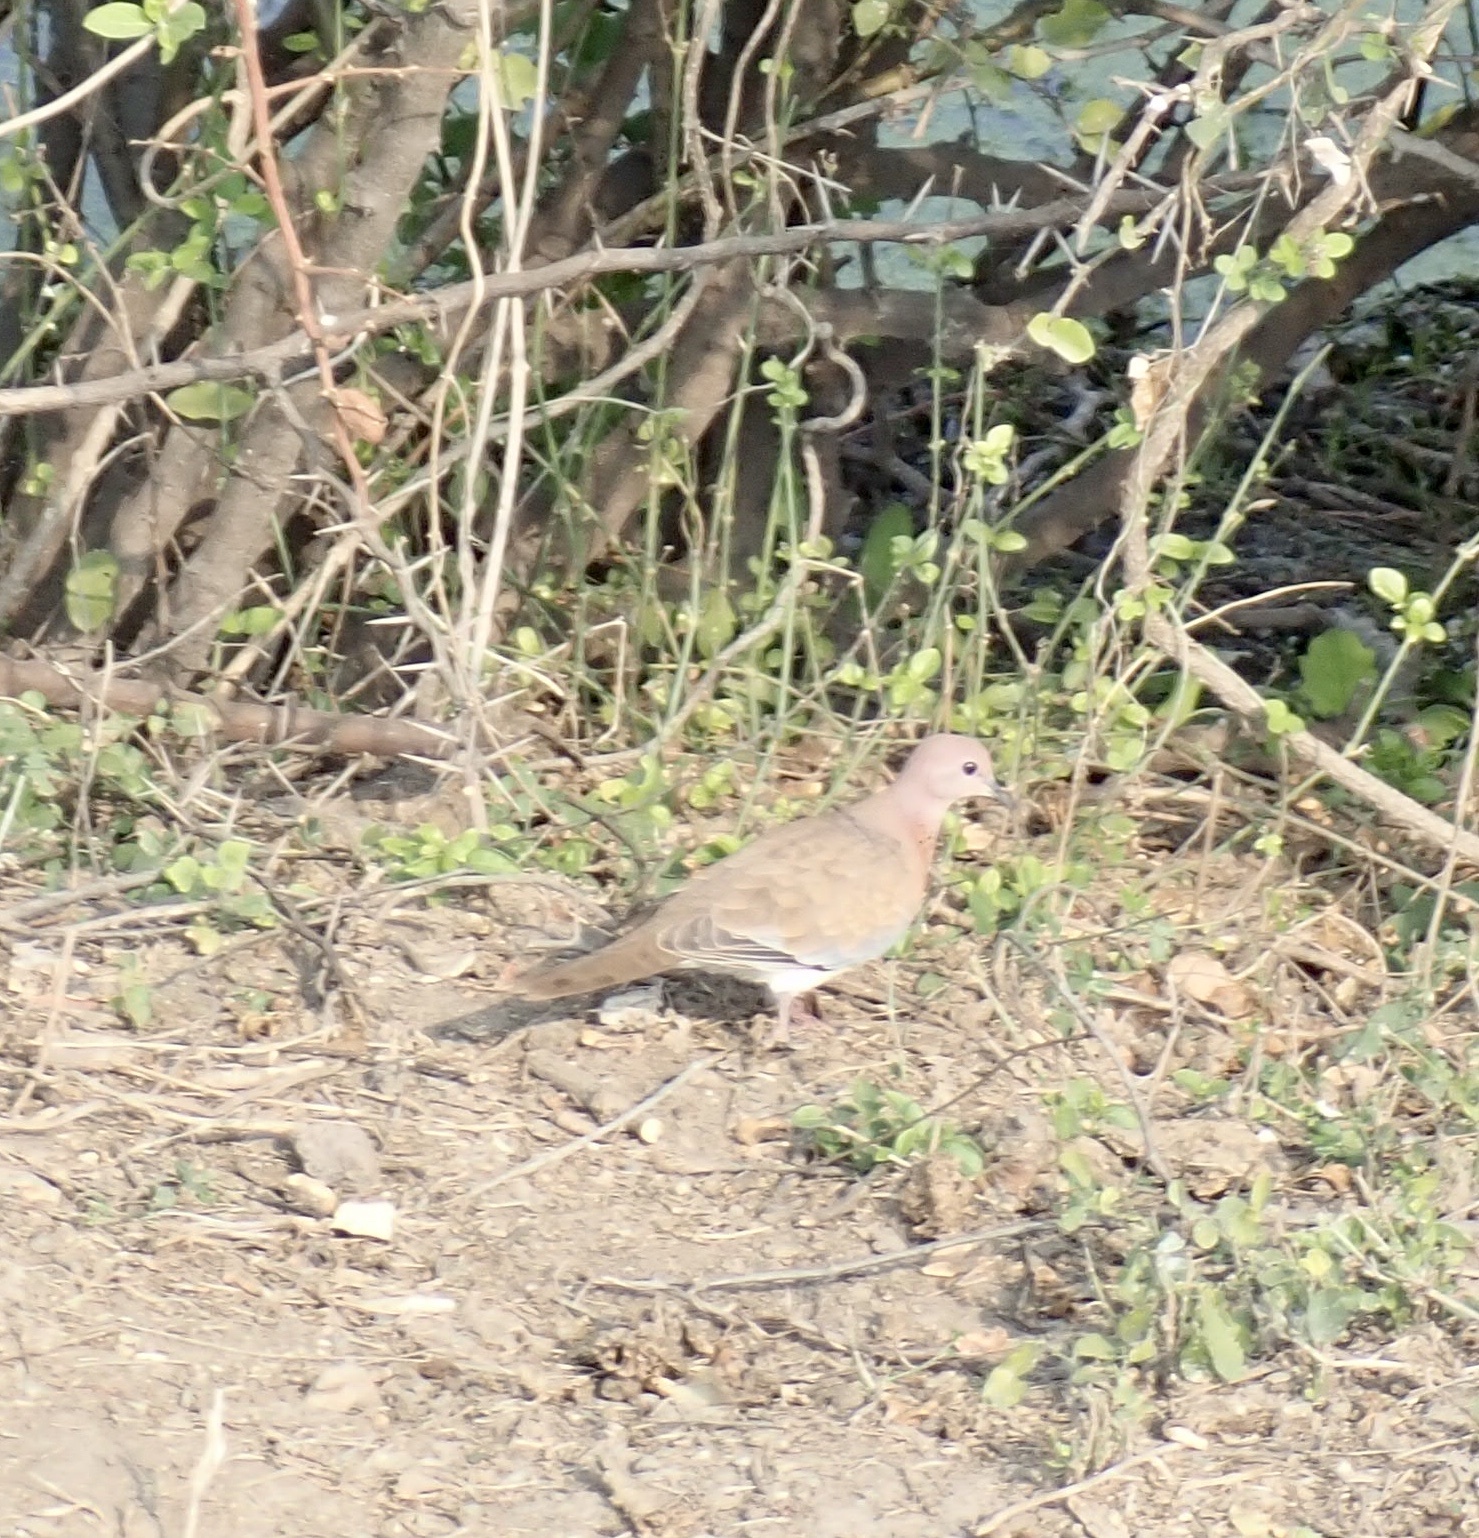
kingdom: Animalia
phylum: Chordata
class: Aves
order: Columbiformes
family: Columbidae
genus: Spilopelia
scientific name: Spilopelia senegalensis
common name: Laughing dove
